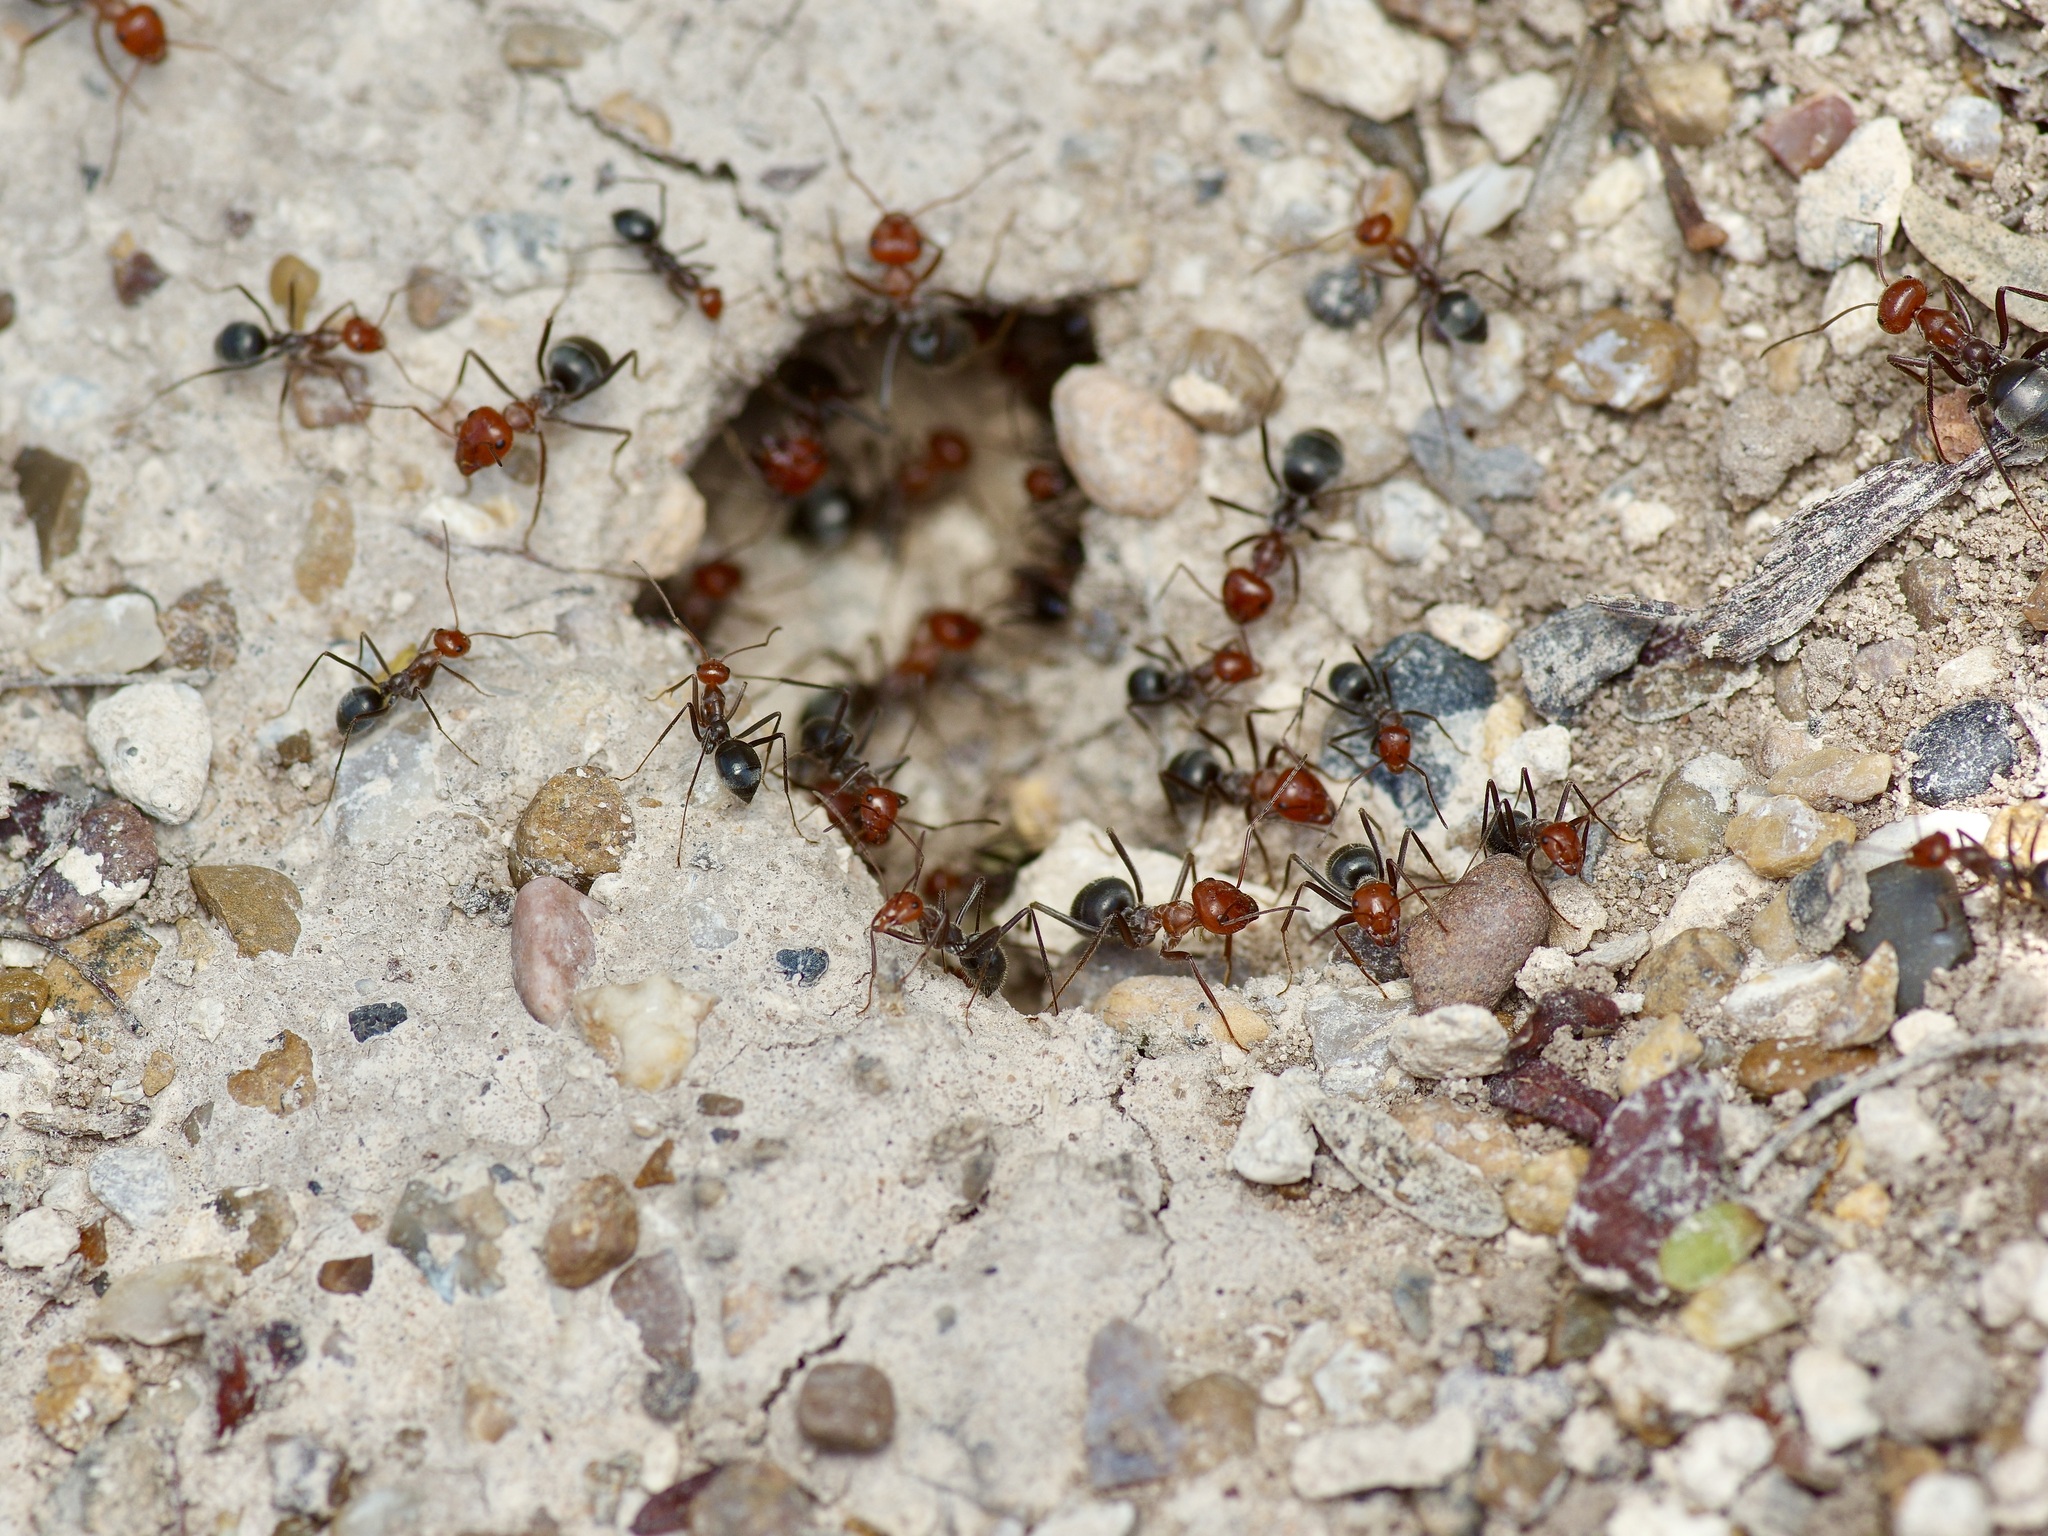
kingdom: Animalia
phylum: Arthropoda
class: Insecta
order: Hymenoptera
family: Formicidae
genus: Myrmecocystus
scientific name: Myrmecocystus placodops
